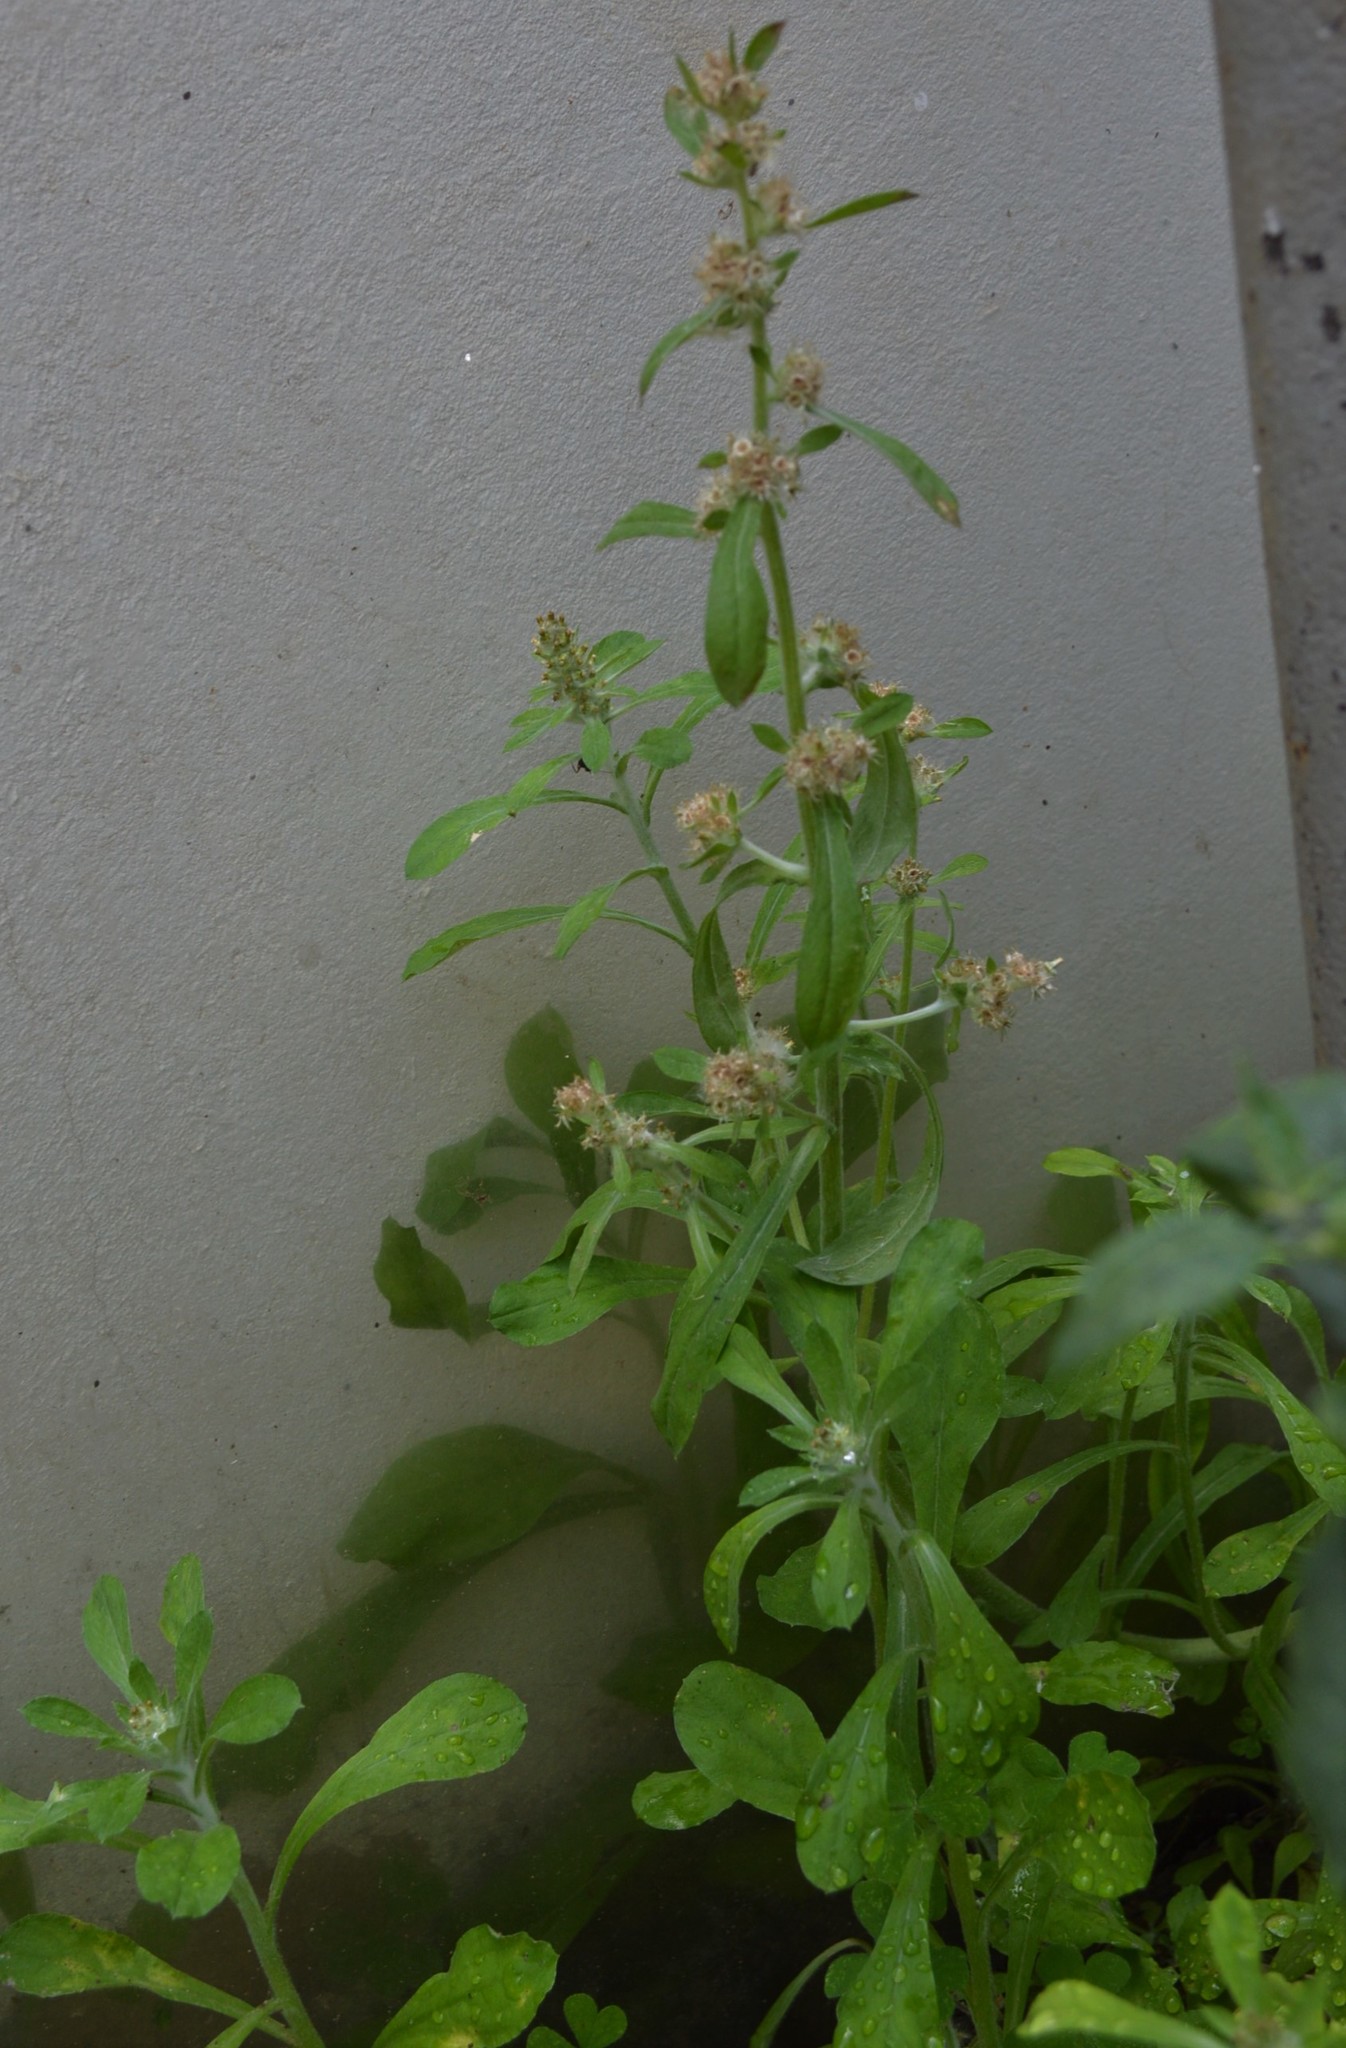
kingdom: Plantae
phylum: Tracheophyta
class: Magnoliopsida
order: Asterales
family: Asteraceae
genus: Gamochaeta
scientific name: Gamochaeta pensylvanica
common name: Pennsylvania everlasting
